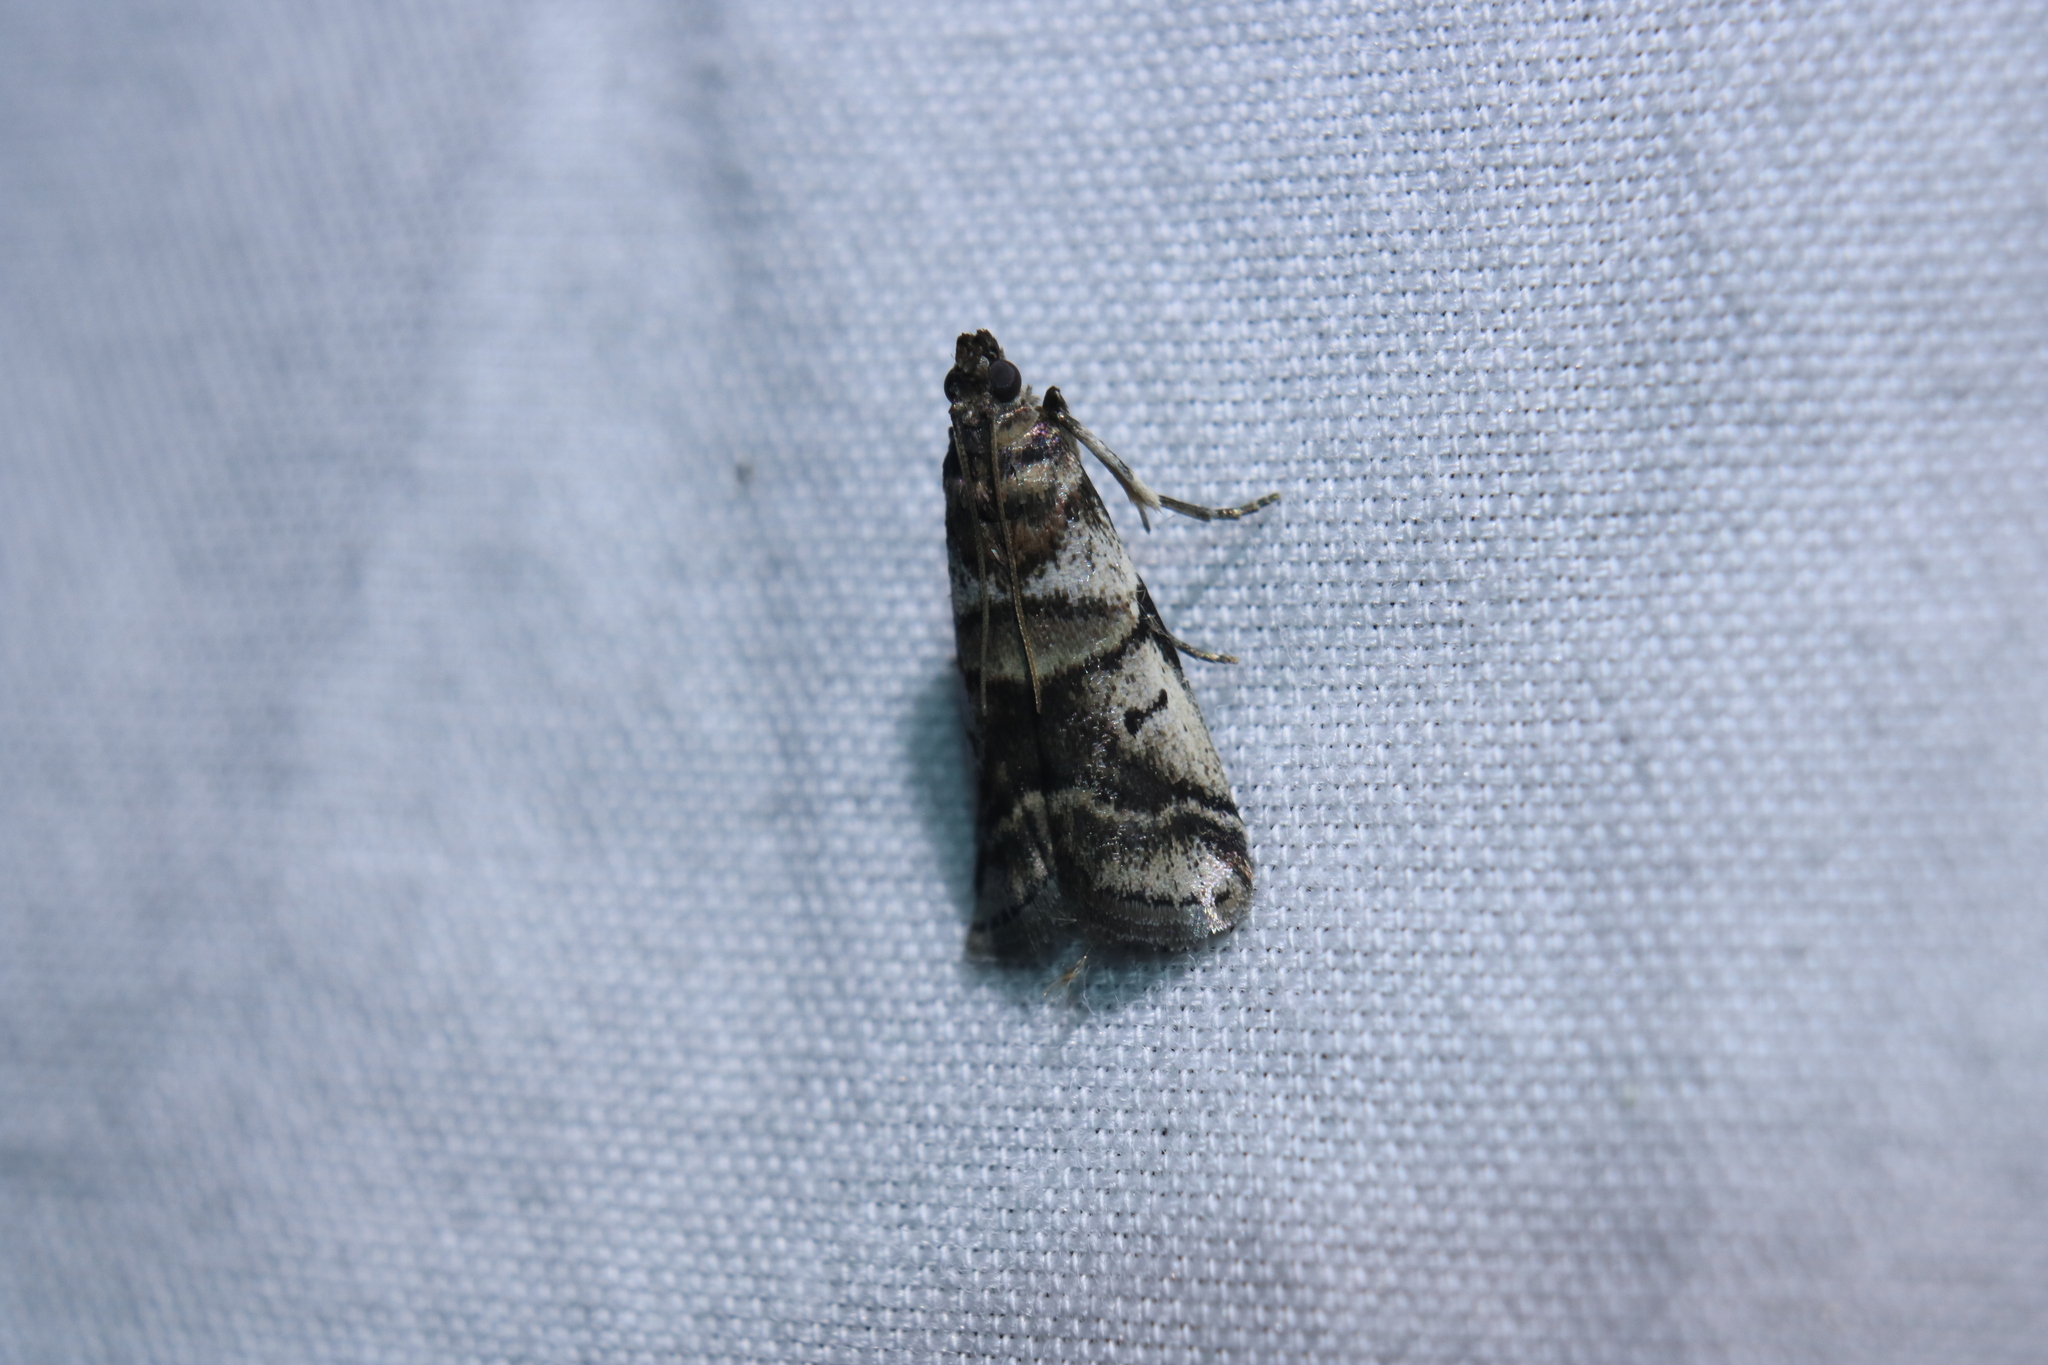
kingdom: Animalia
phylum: Arthropoda
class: Insecta
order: Lepidoptera
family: Pyralidae
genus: Acrobasis
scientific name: Acrobasis indigenella
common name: Leaf crumpler moth
